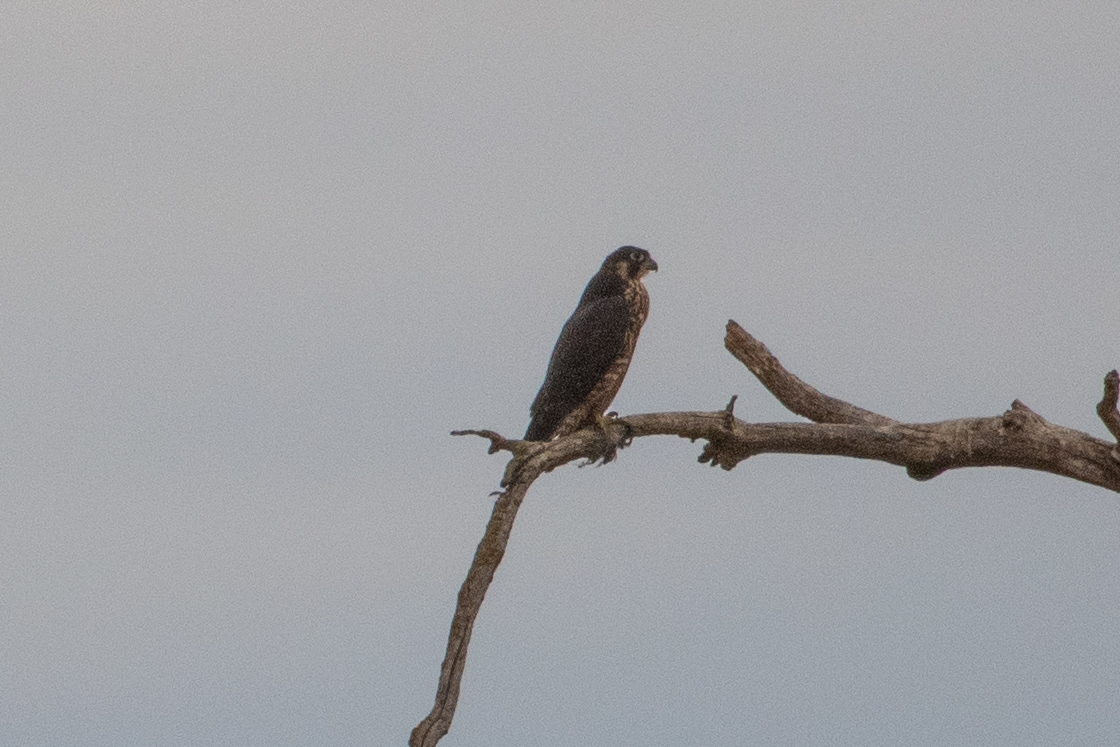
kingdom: Animalia
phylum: Chordata
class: Aves
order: Falconiformes
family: Falconidae
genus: Falco
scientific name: Falco peregrinus
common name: Peregrine falcon
